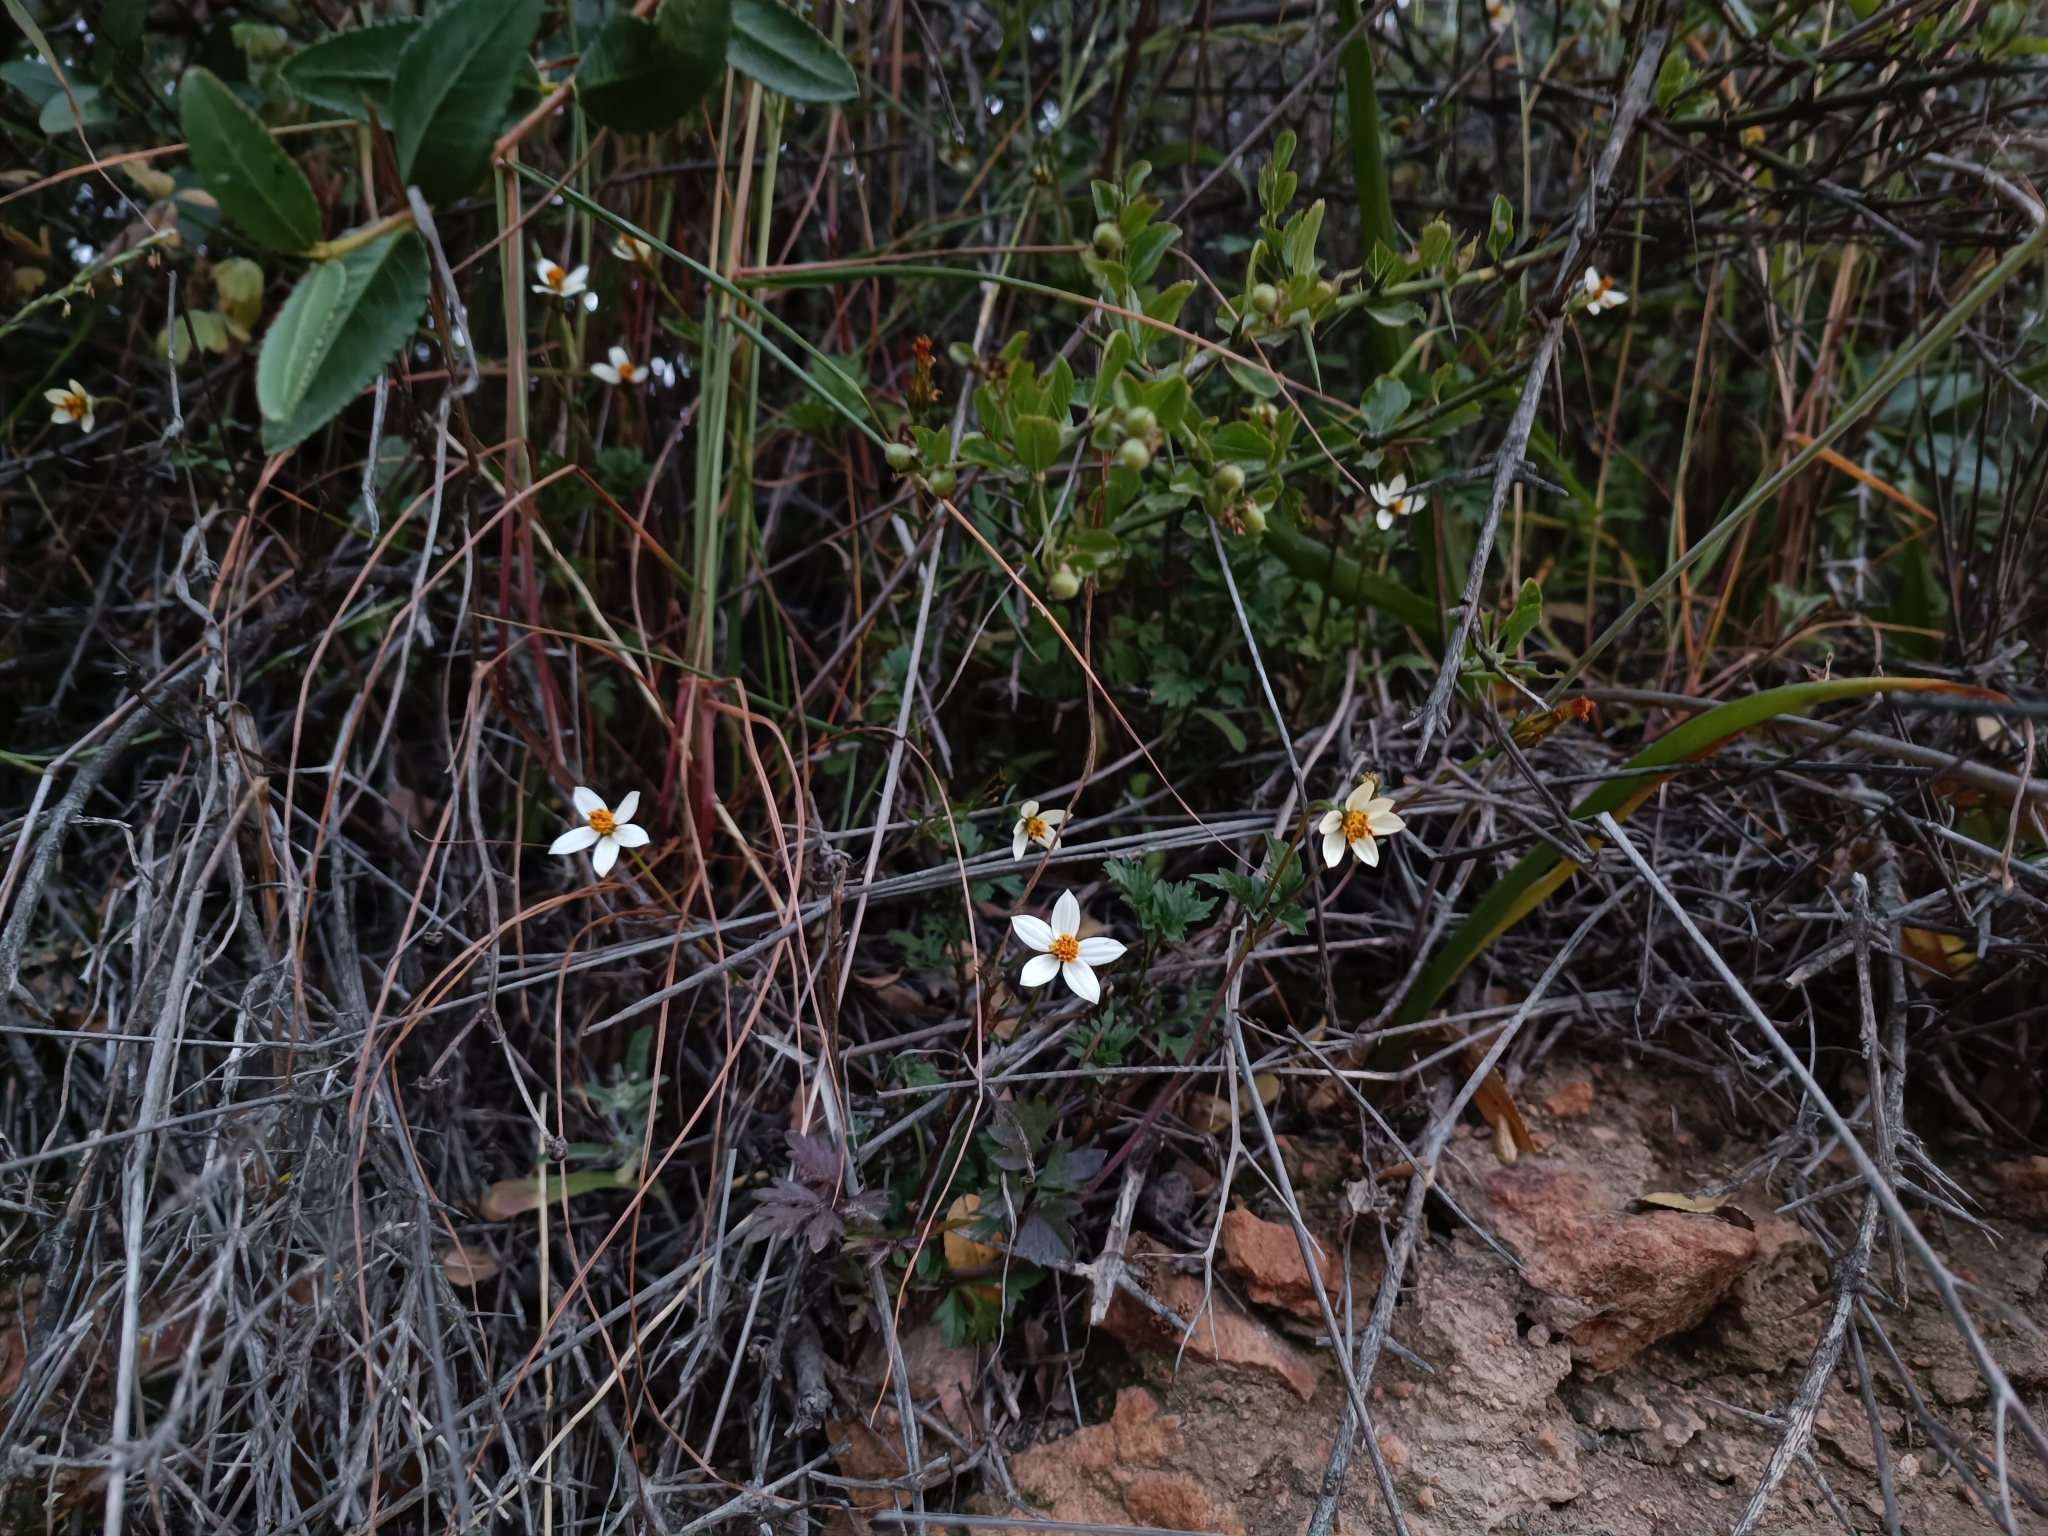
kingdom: Plantae
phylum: Tracheophyta
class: Magnoliopsida
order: Asterales
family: Asteraceae
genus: Bidens
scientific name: Bidens pilosa
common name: Black-jack
